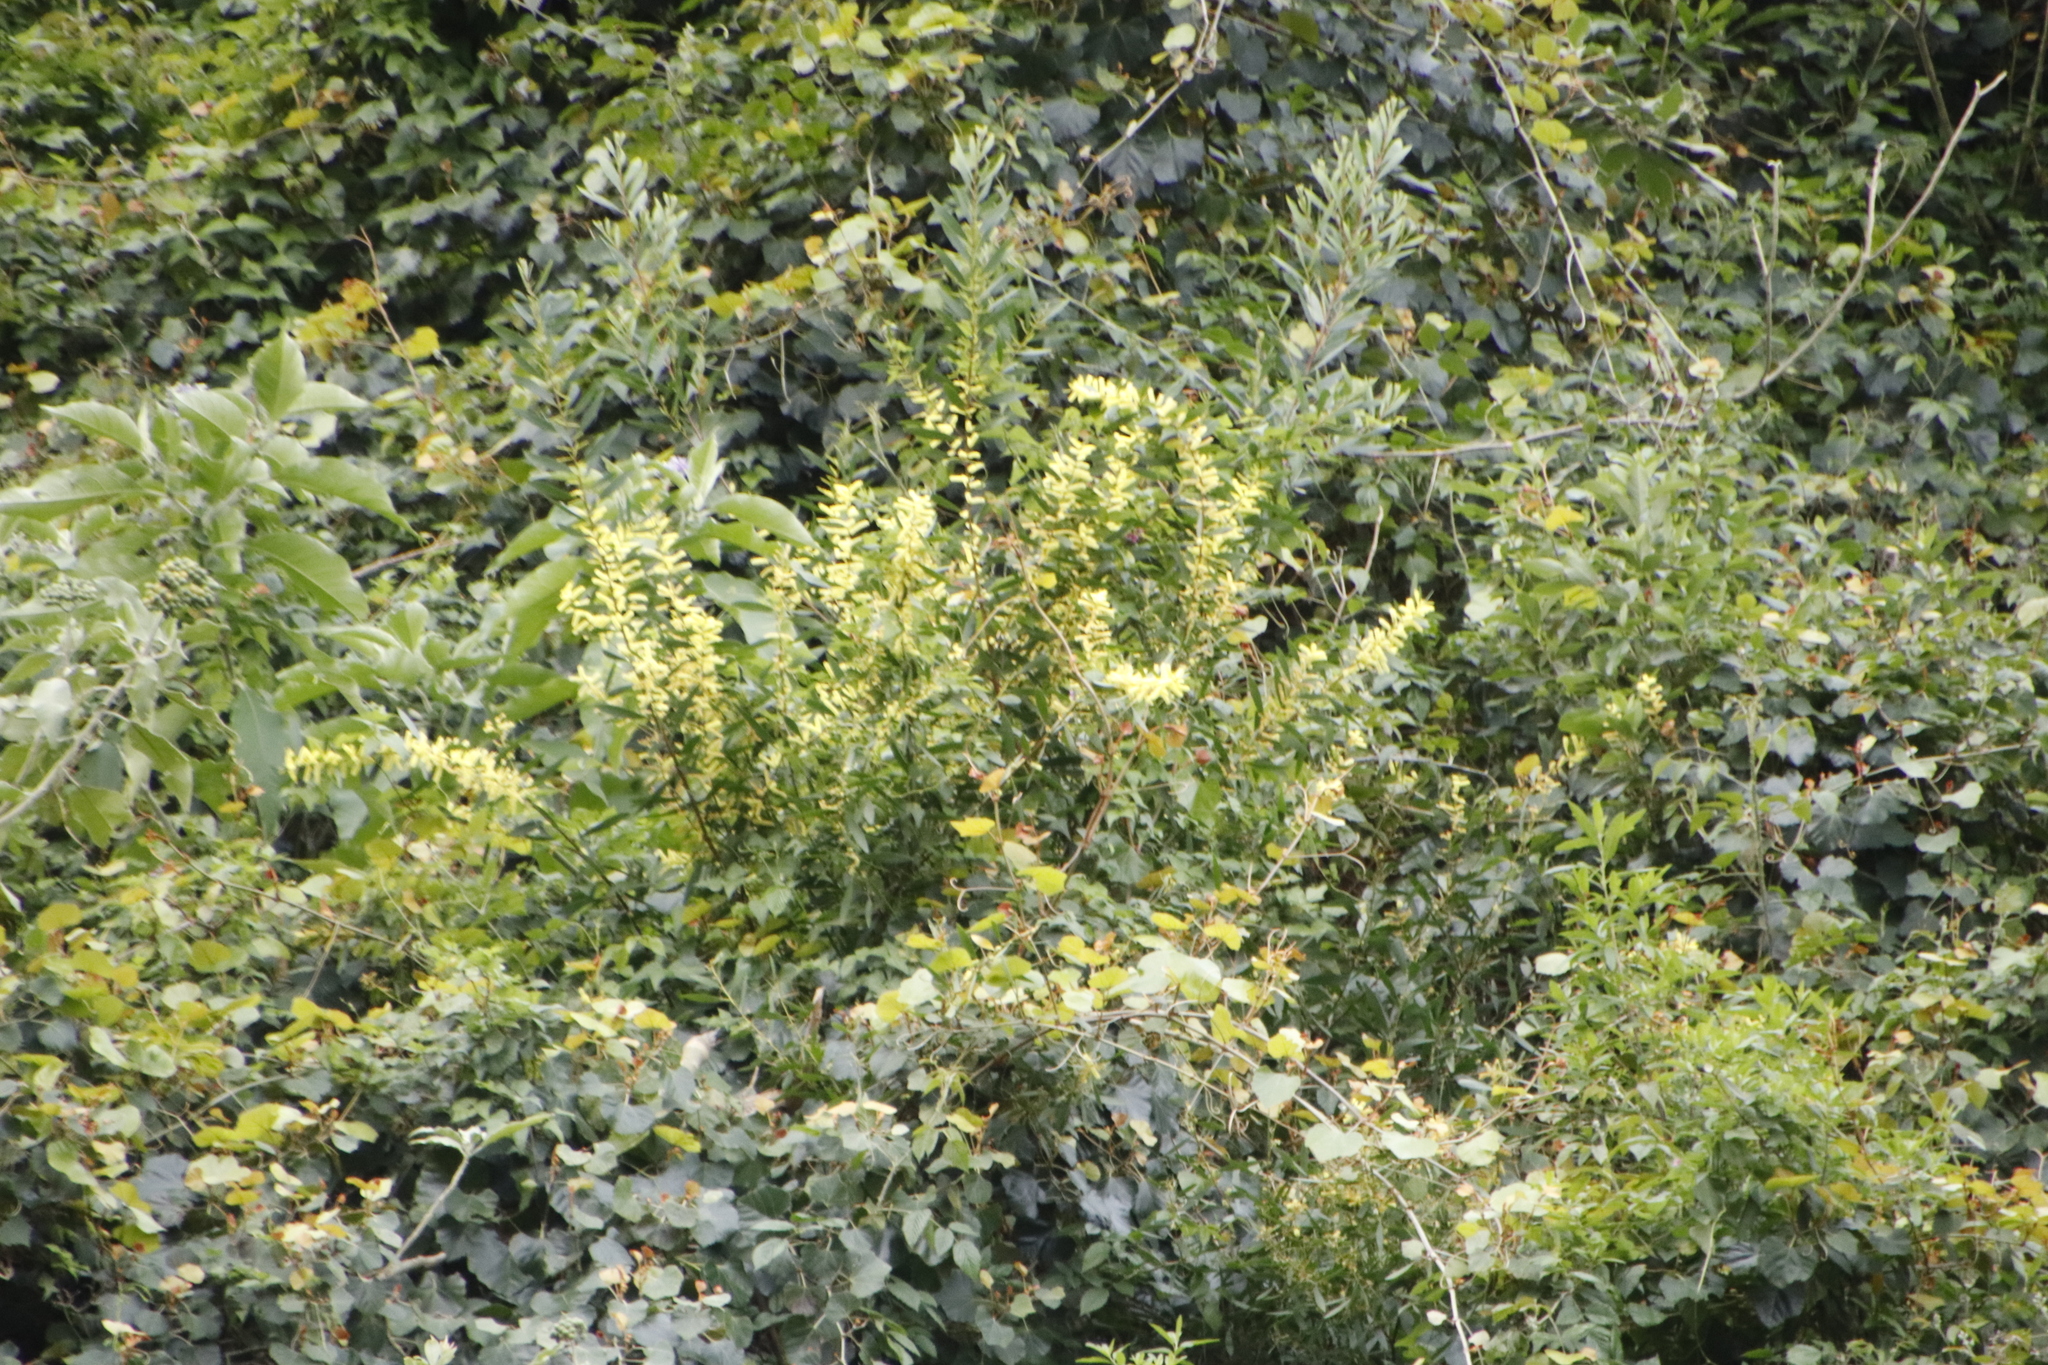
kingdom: Plantae
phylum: Tracheophyta
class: Magnoliopsida
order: Fabales
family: Fabaceae
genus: Acacia
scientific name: Acacia longifolia
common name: Sydney golden wattle
